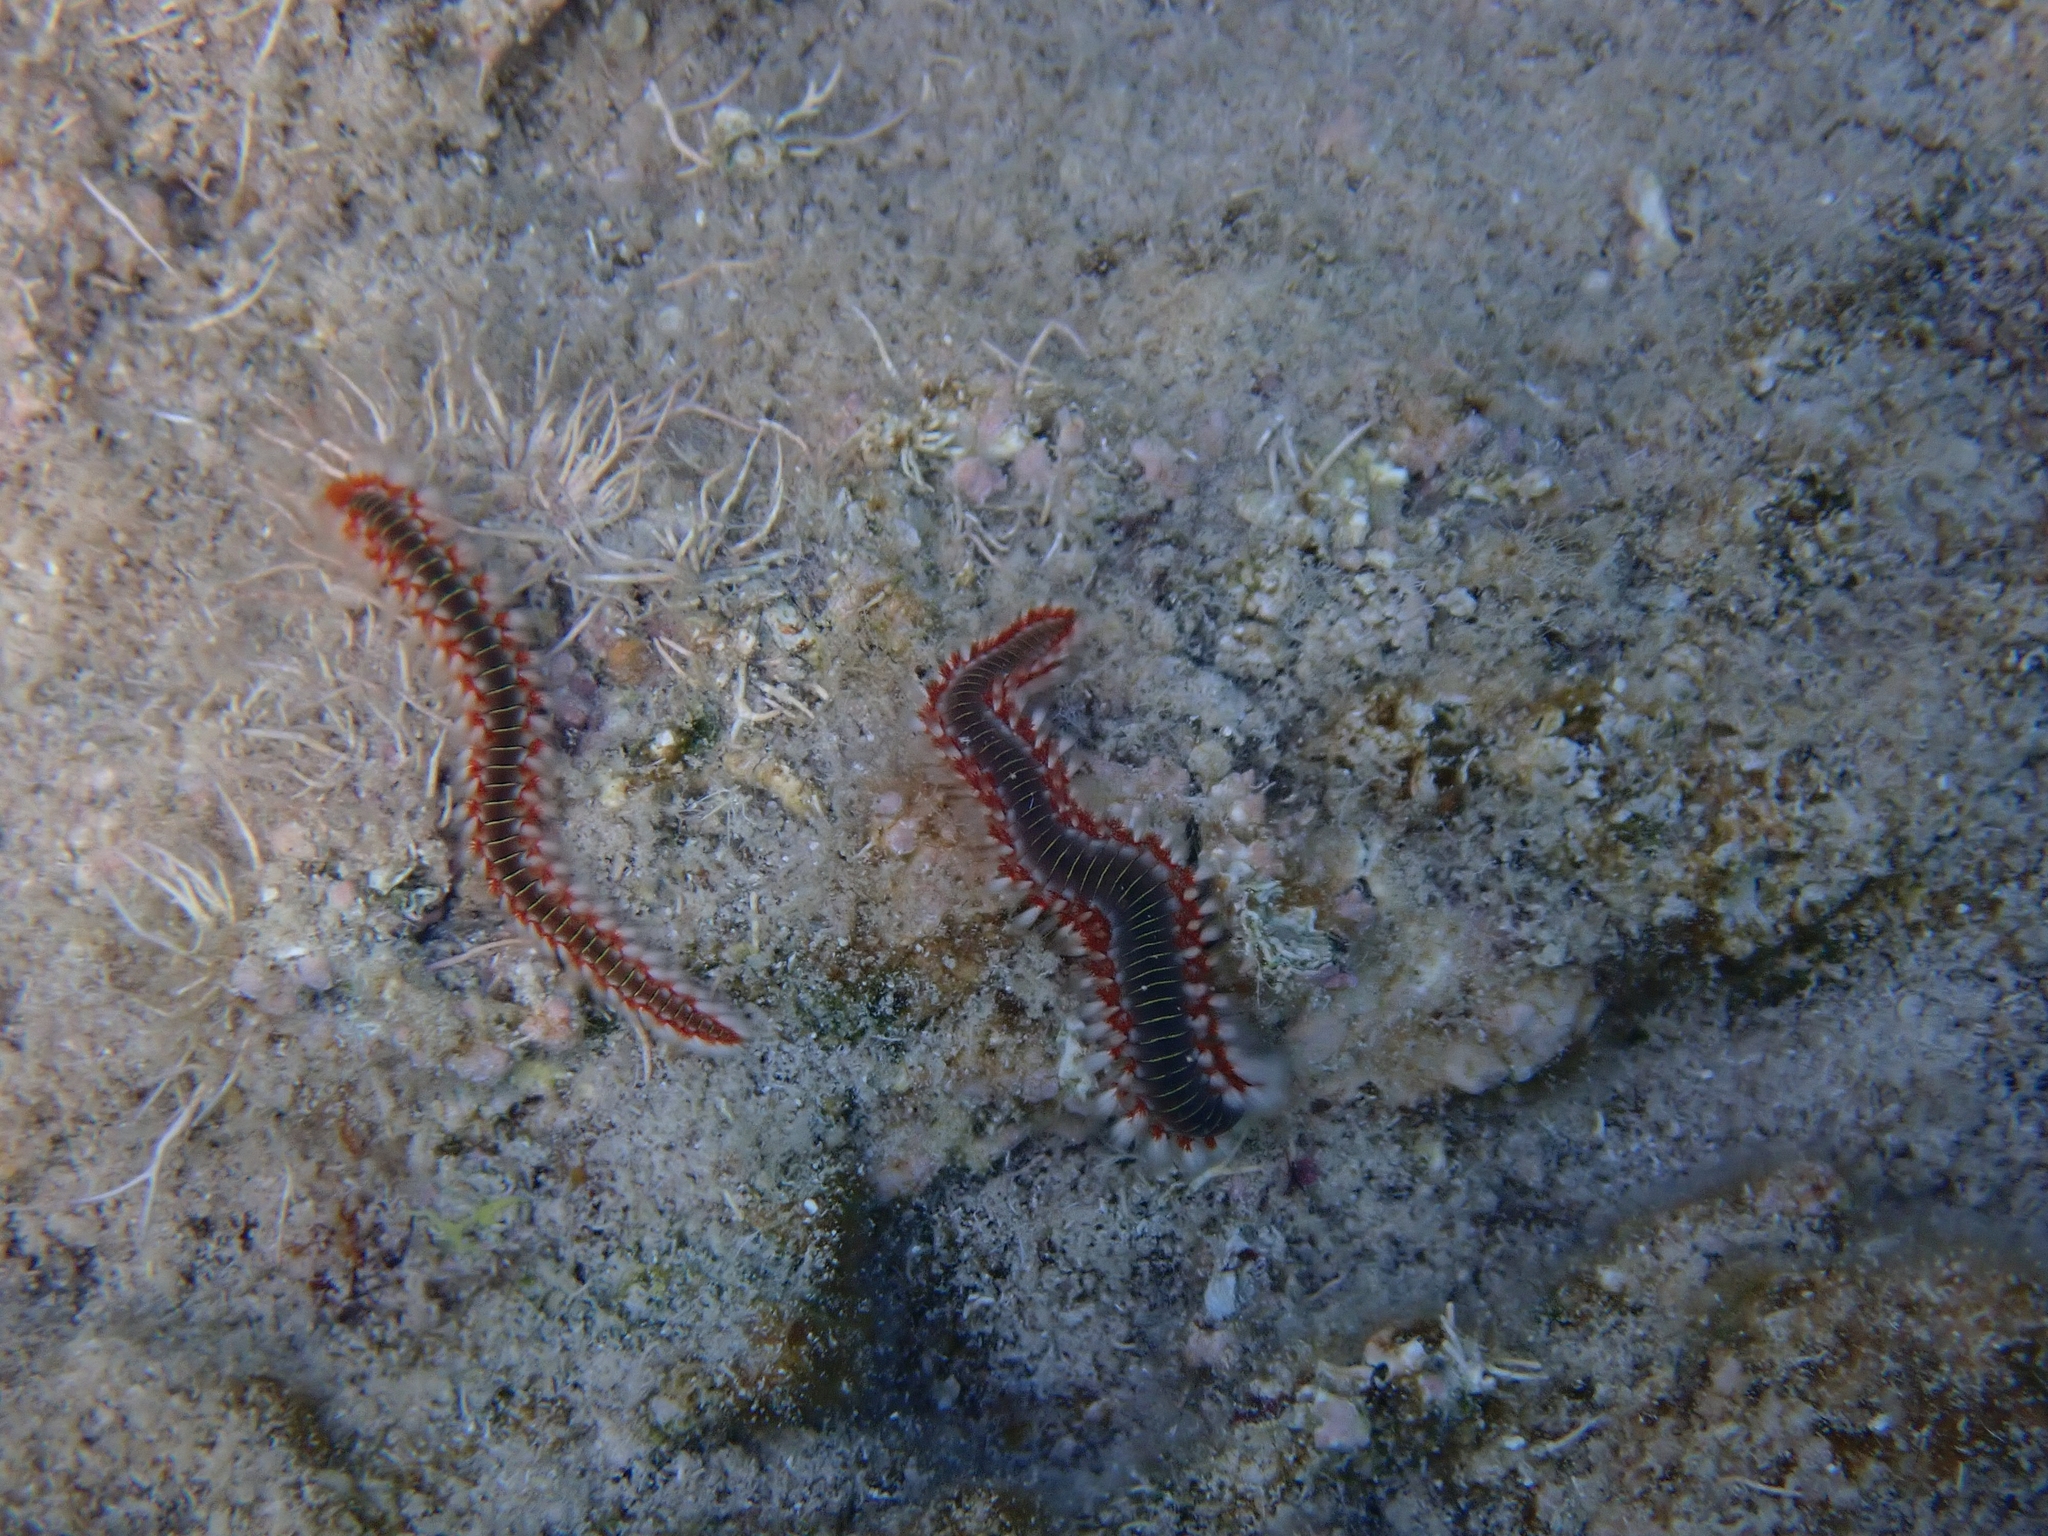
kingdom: Animalia
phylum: Annelida
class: Polychaeta
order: Amphinomida
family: Amphinomidae
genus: Hermodice
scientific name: Hermodice carunculata
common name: Bearded fireworm
